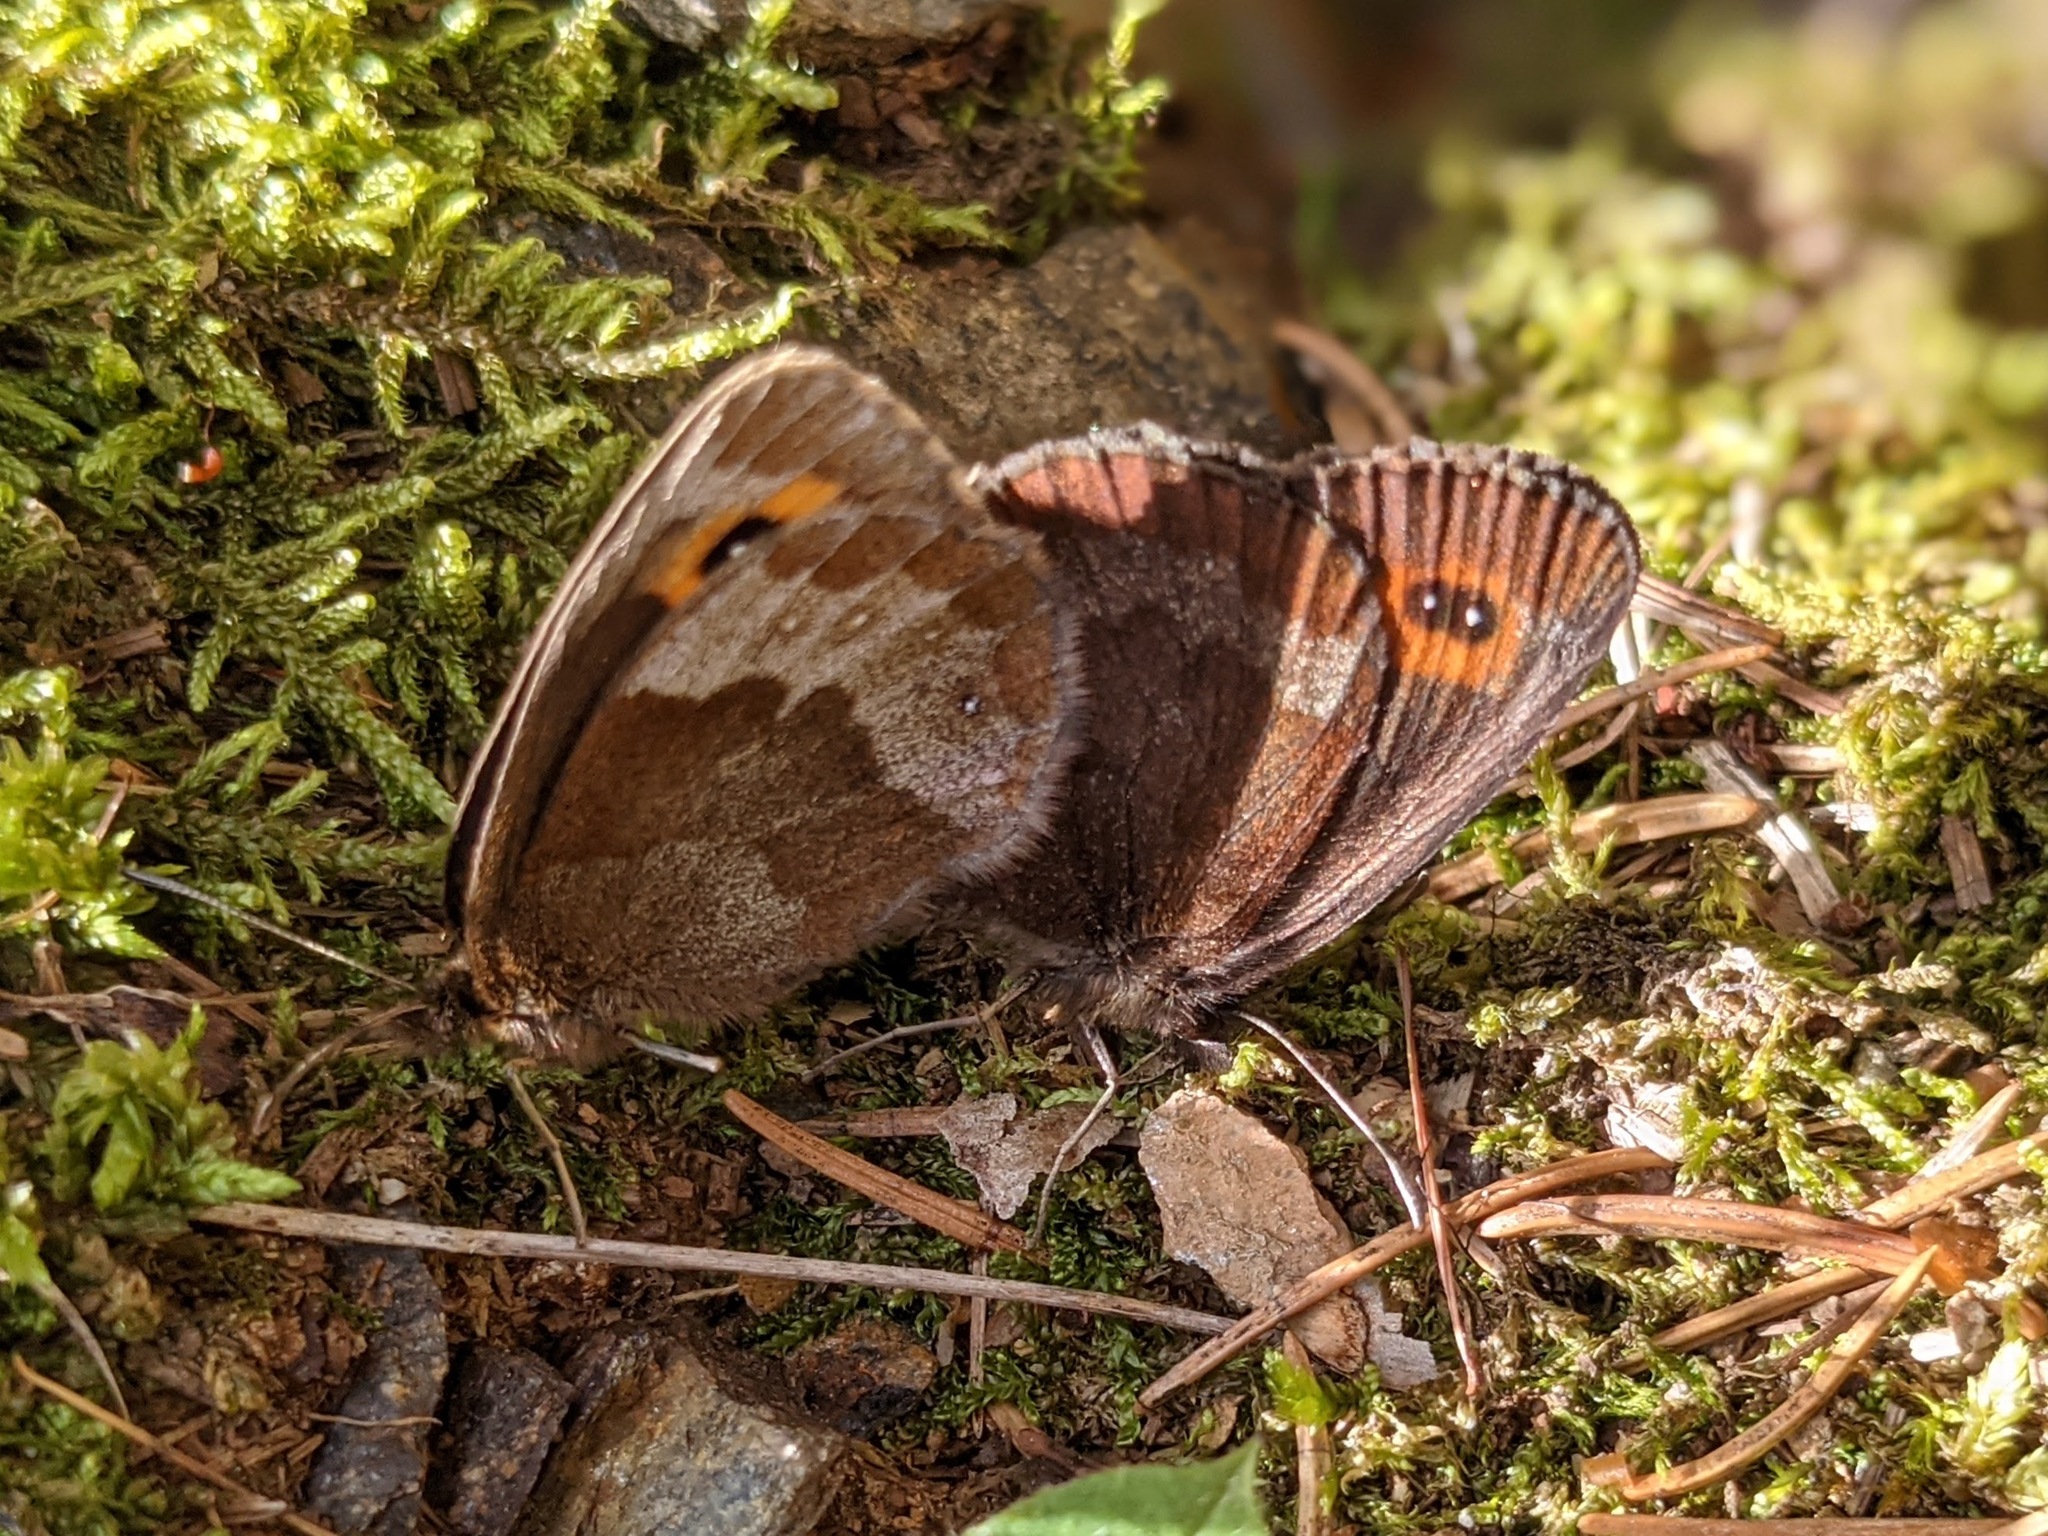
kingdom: Animalia
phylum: Arthropoda
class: Insecta
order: Lepidoptera
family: Nymphalidae
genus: Erebia
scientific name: Erebia aethiops
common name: Scotch argus
